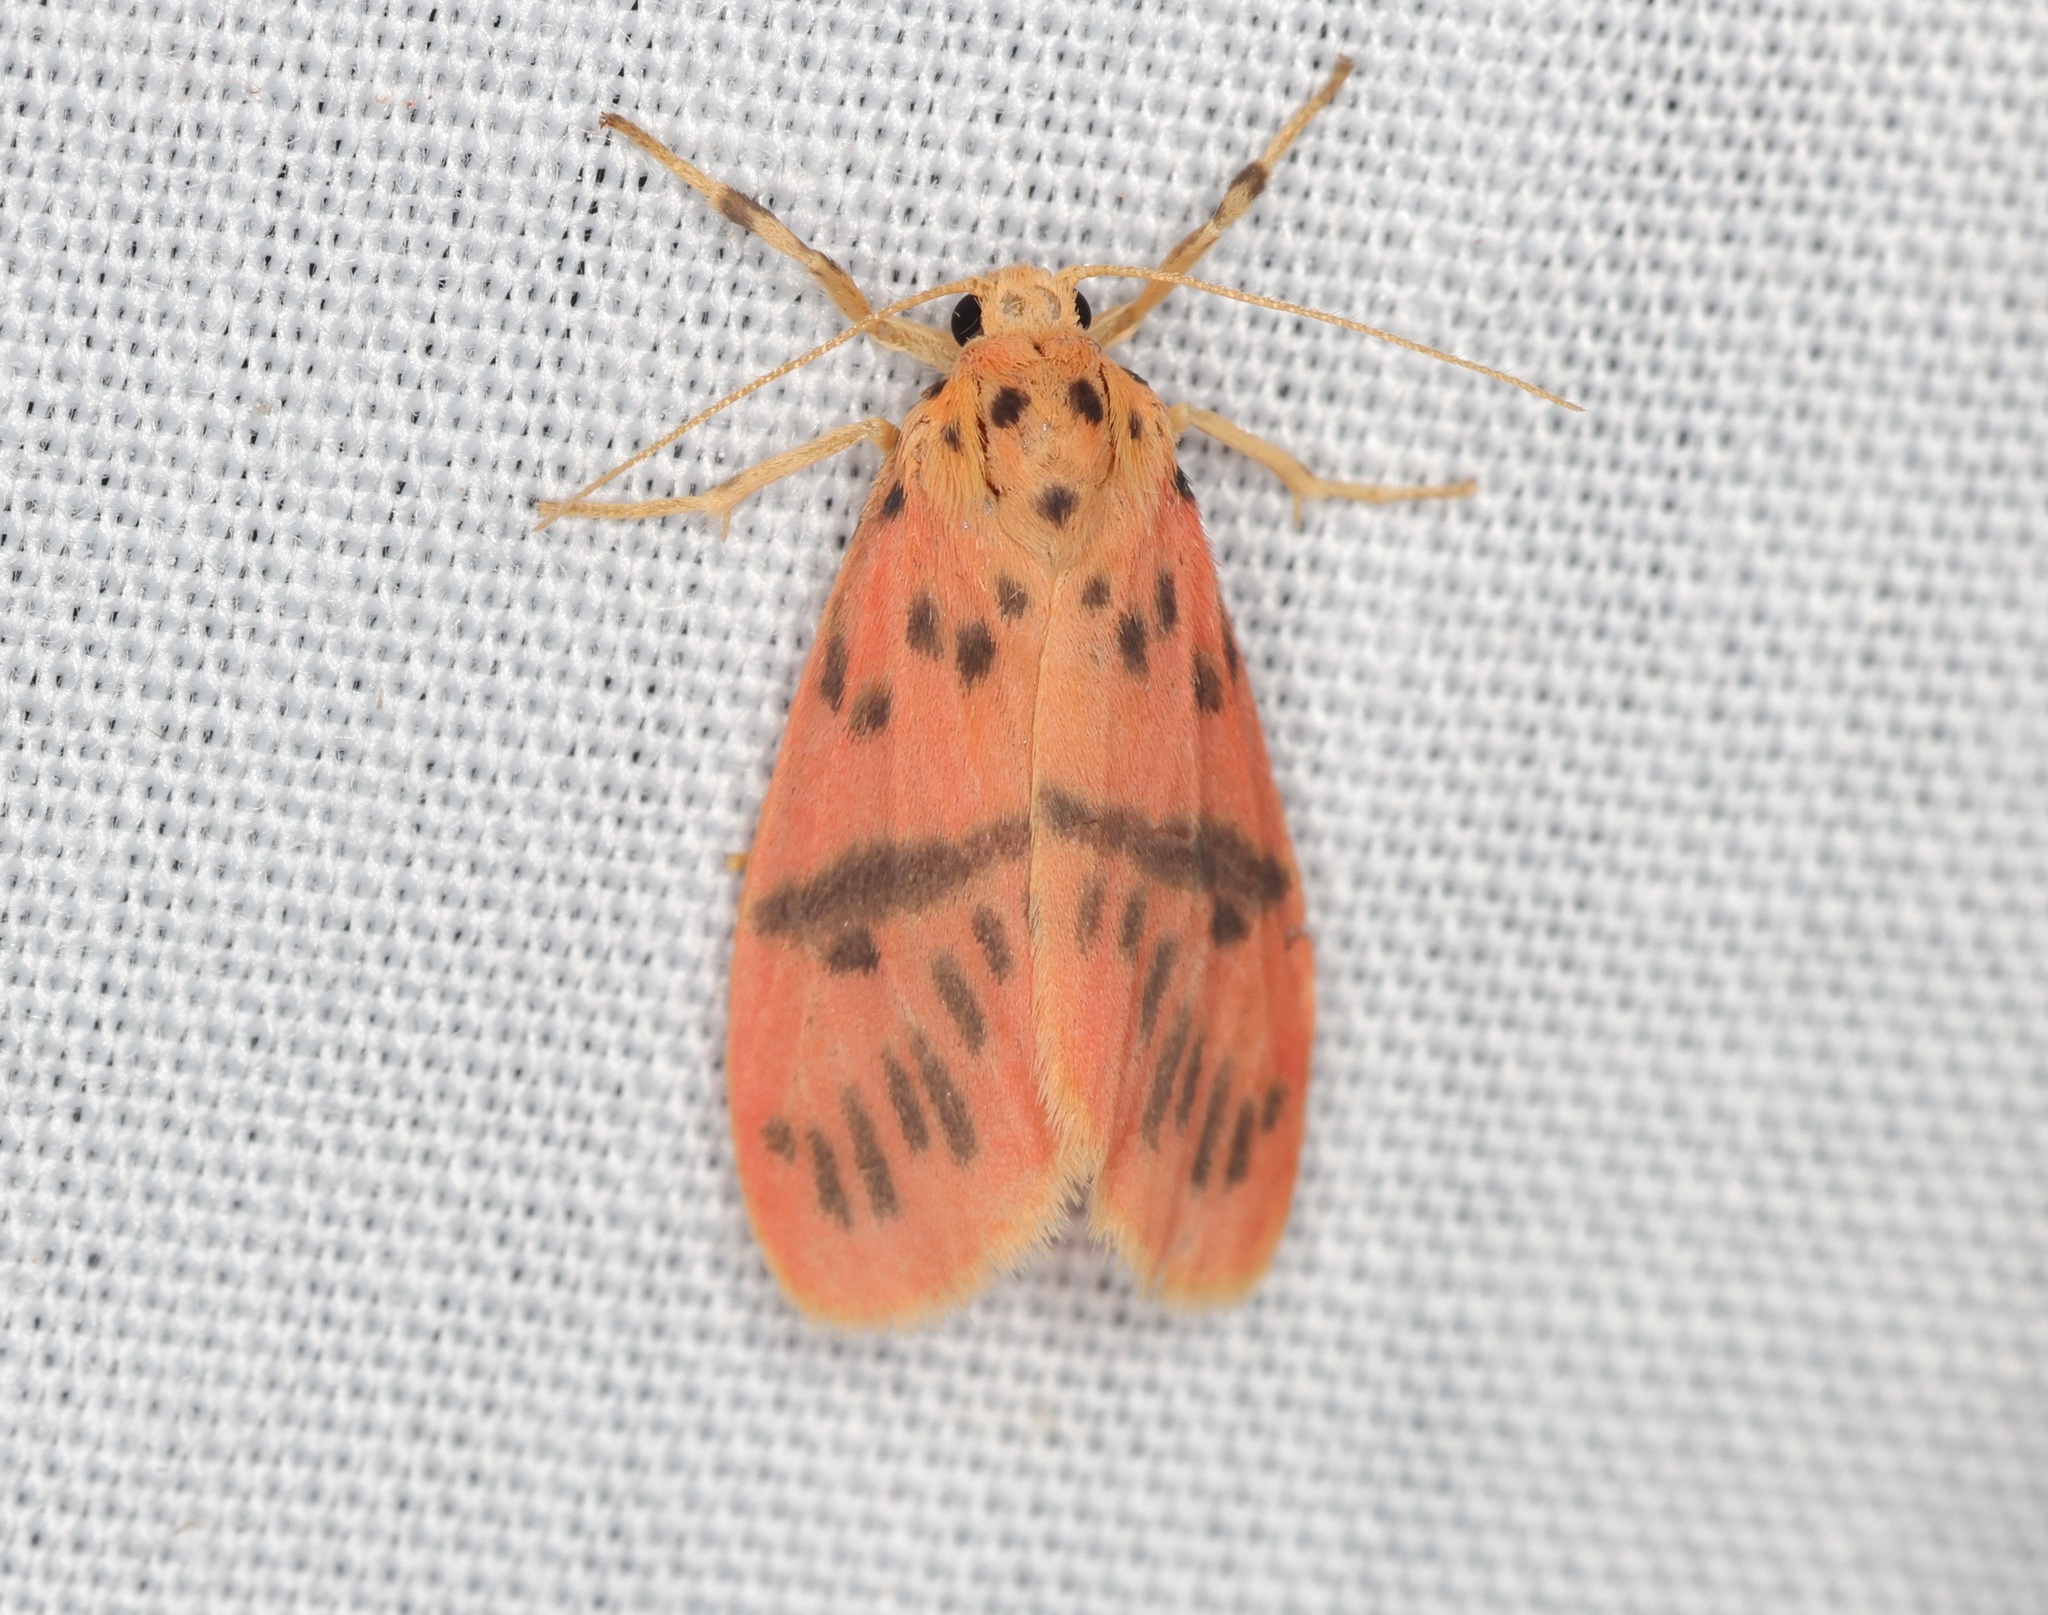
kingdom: Animalia
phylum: Arthropoda
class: Insecta
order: Lepidoptera
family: Erebidae
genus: Arctelene
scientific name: Arctelene arcuata
